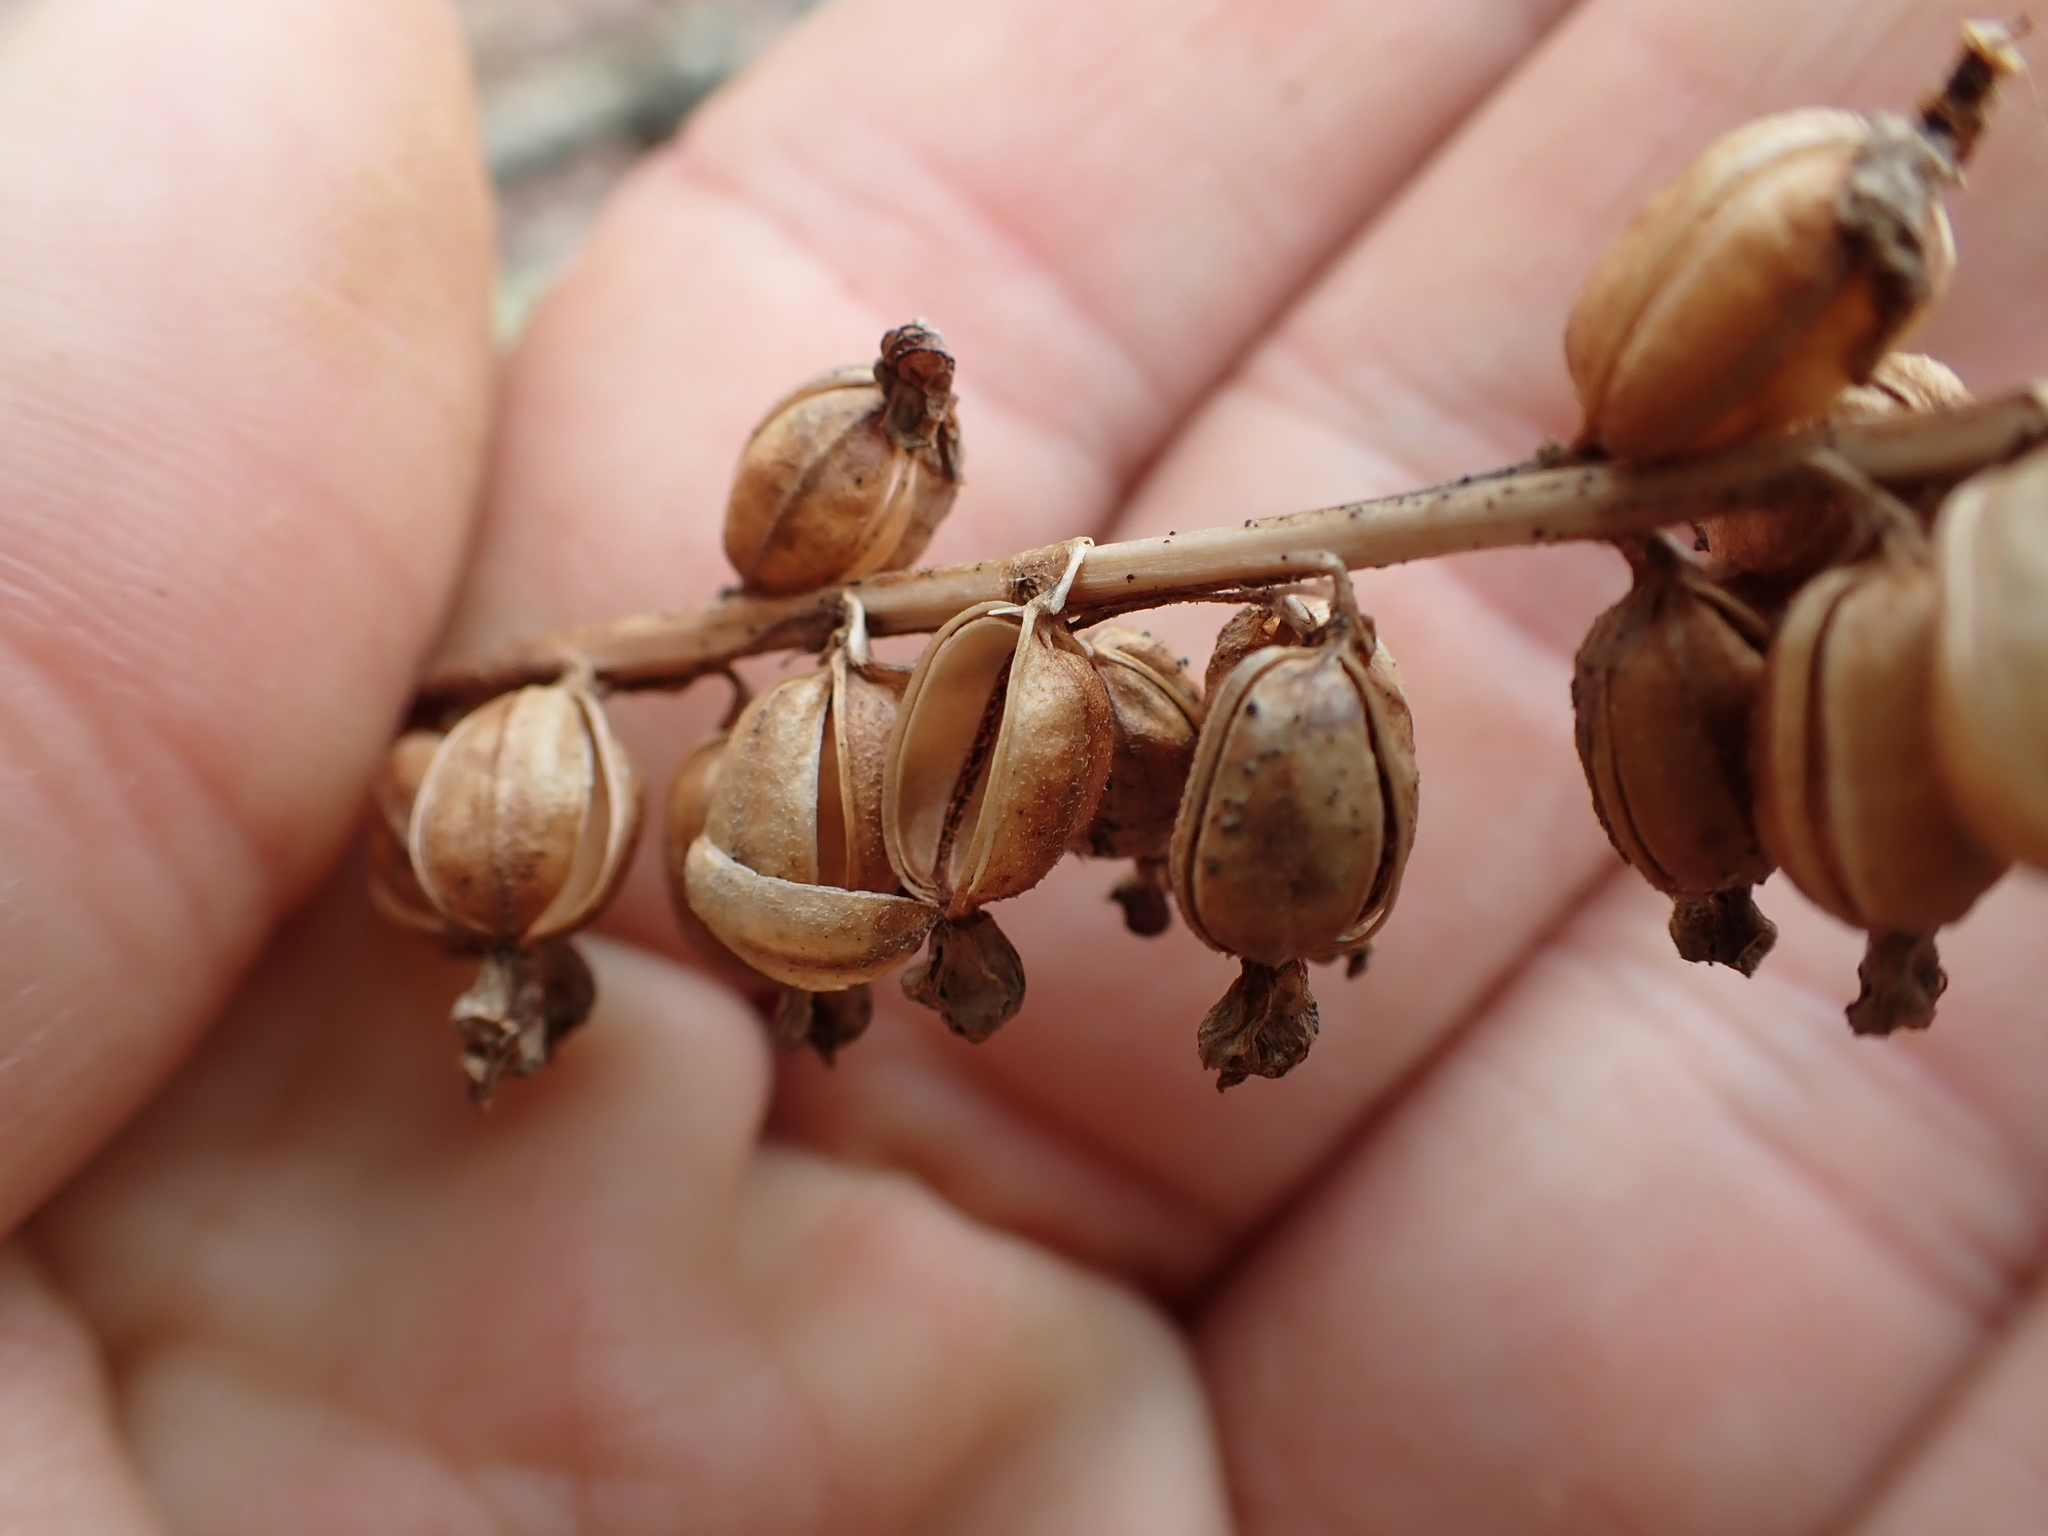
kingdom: Plantae
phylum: Tracheophyta
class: Liliopsida
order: Asparagales
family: Orchidaceae
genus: Goodyera
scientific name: Goodyera pubescens
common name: Downy rattlesnake-plantain
